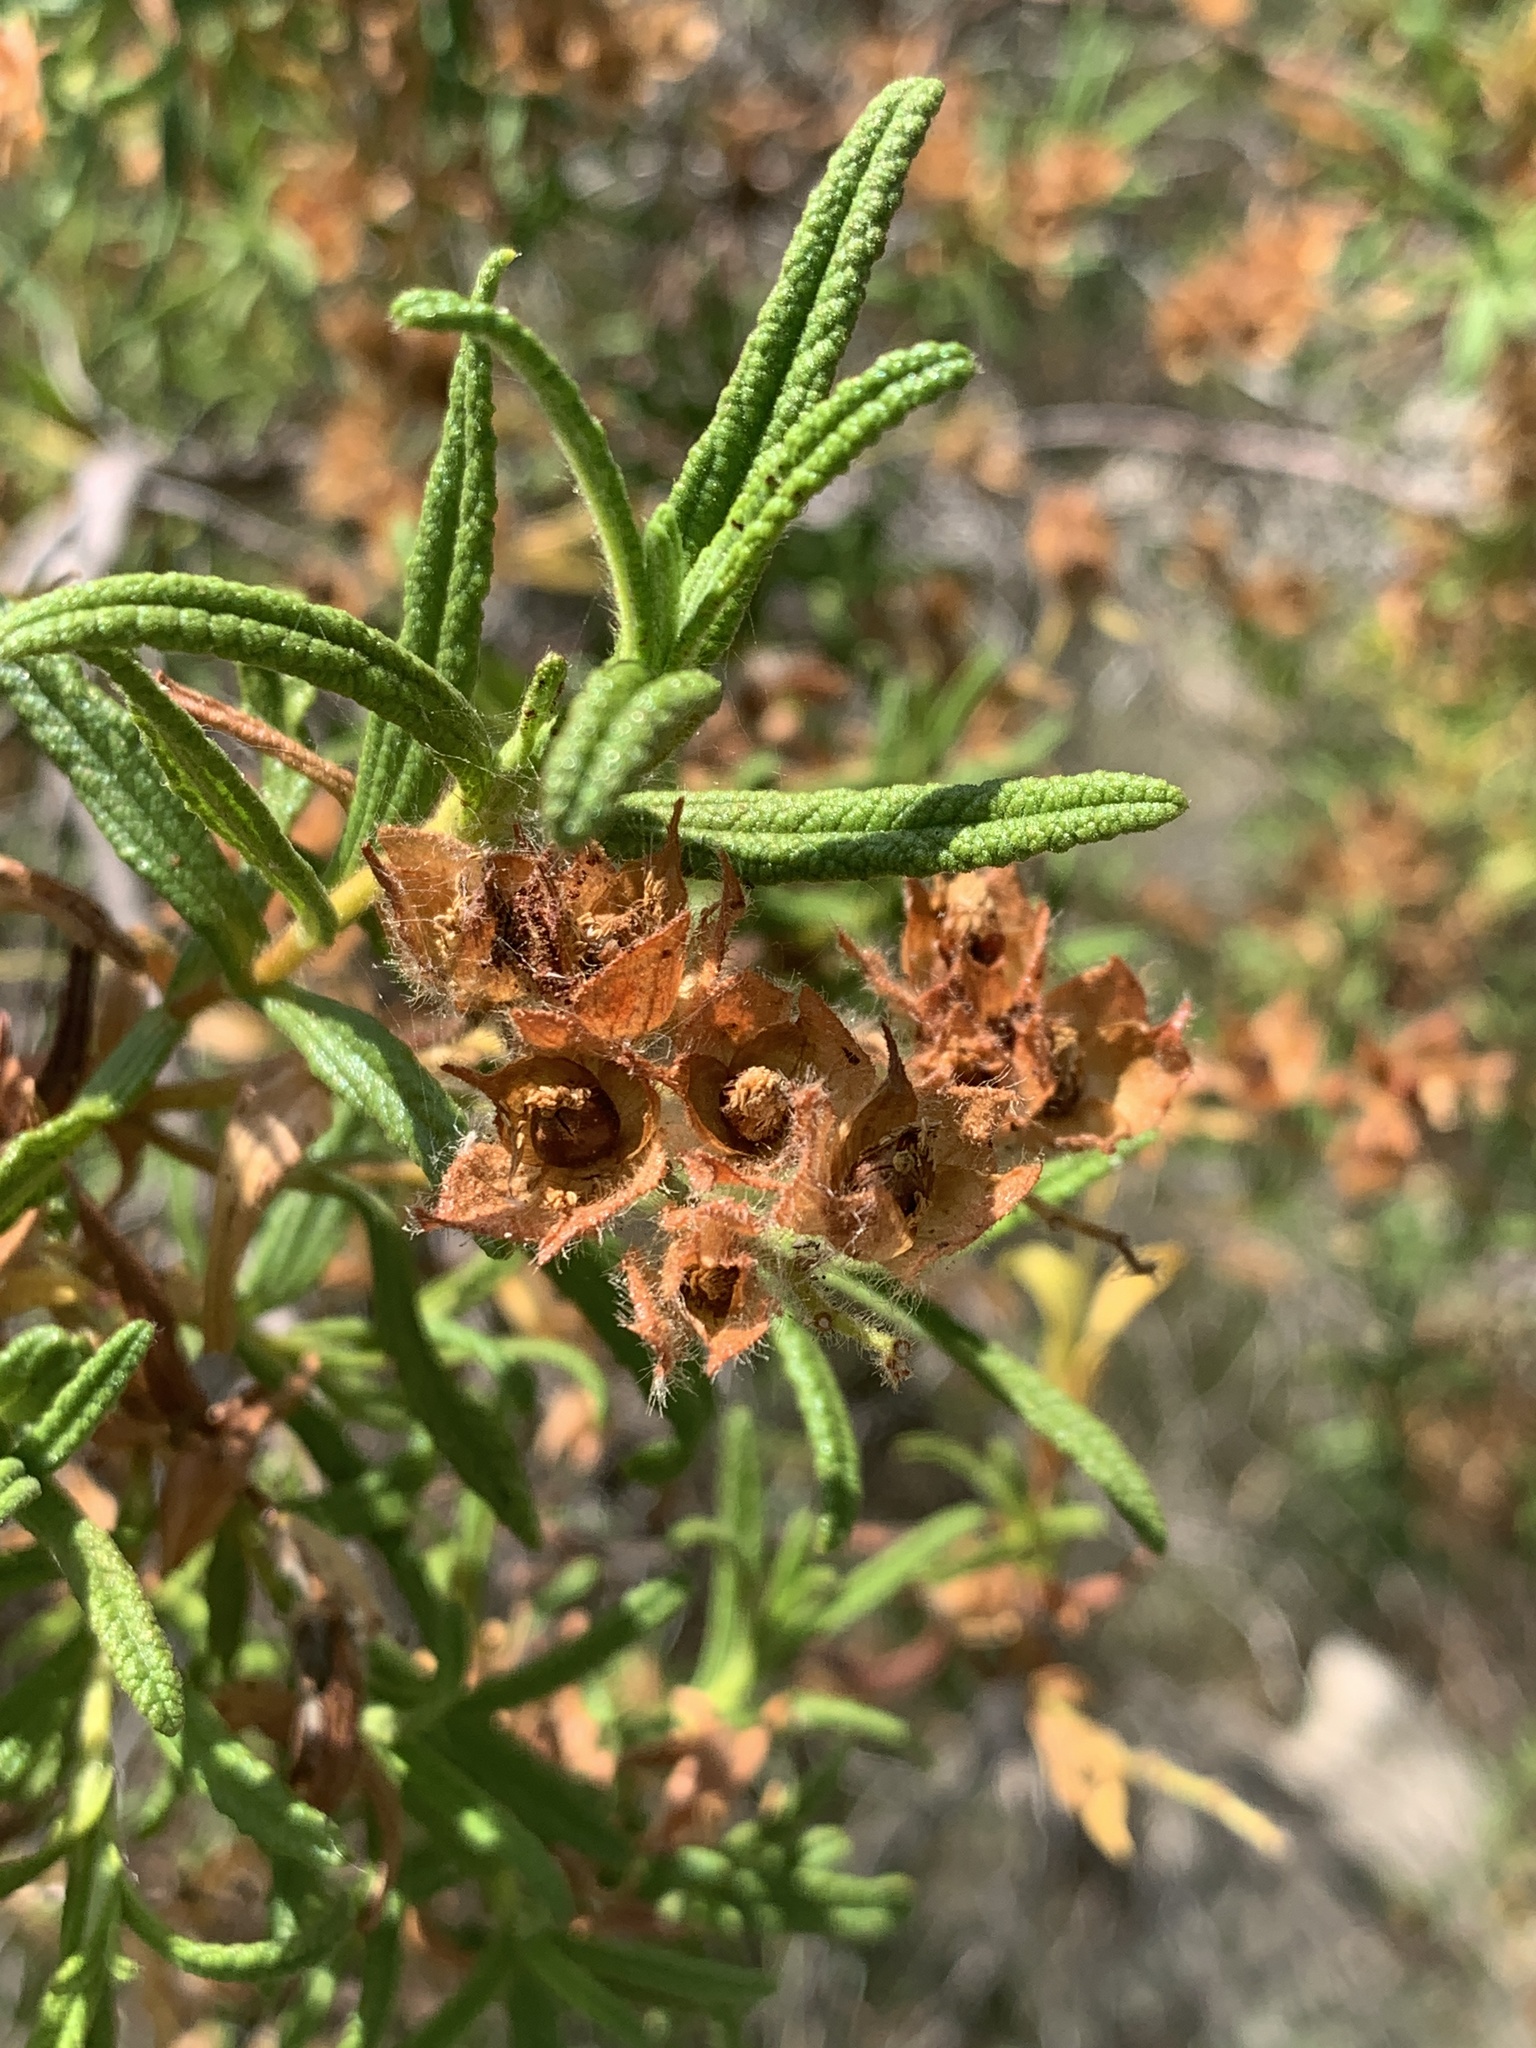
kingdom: Plantae
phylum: Tracheophyta
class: Magnoliopsida
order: Malvales
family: Cistaceae
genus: Cistus
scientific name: Cistus monspeliensis
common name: Montpelier cistus
